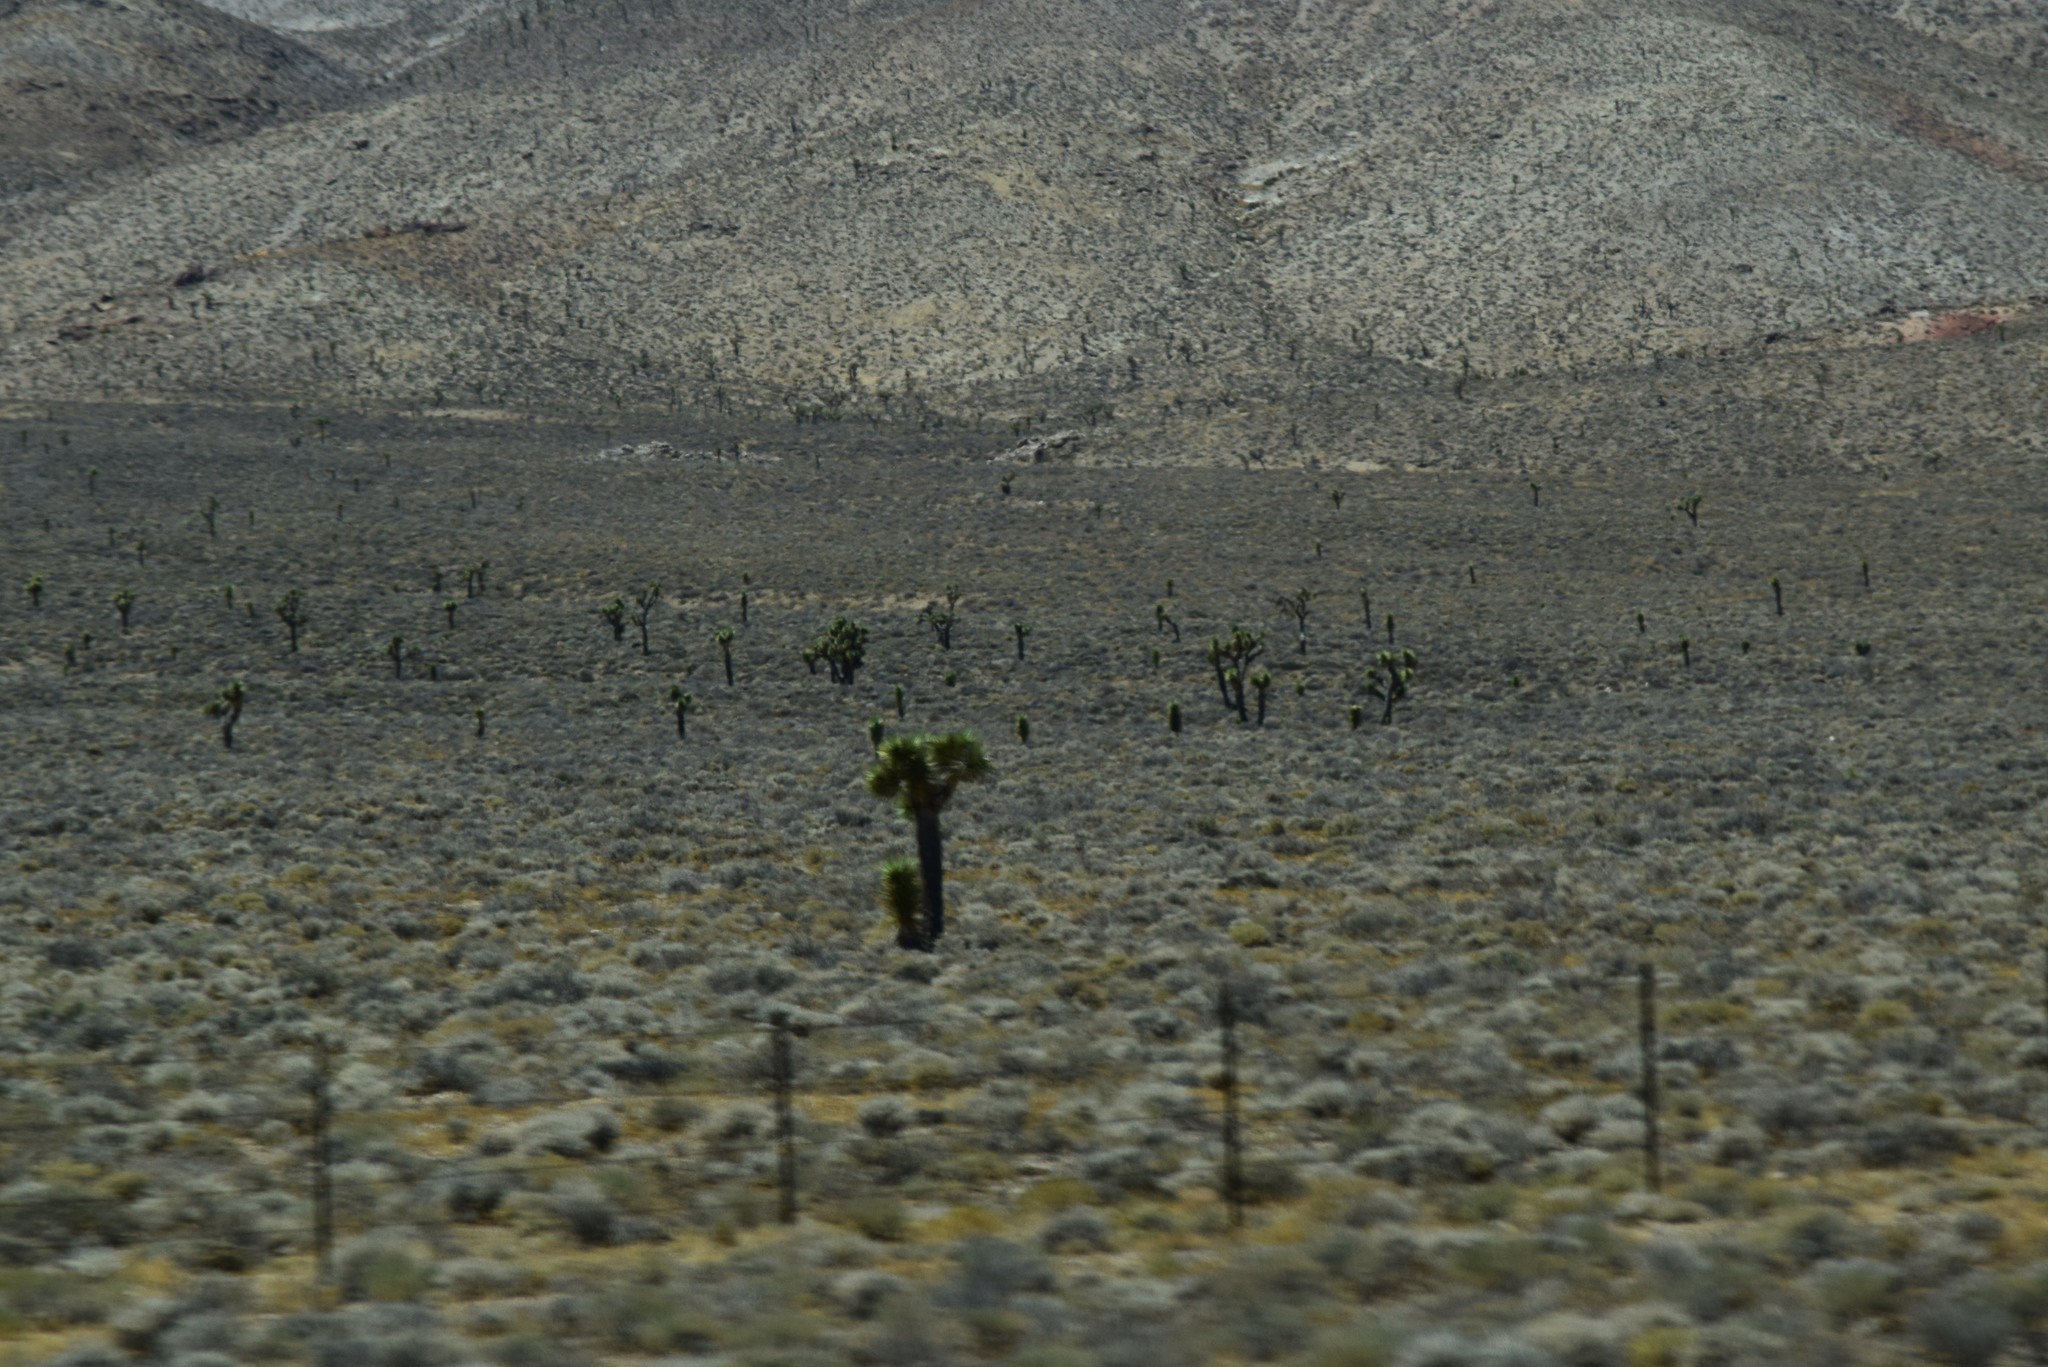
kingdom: Plantae
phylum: Tracheophyta
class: Liliopsida
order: Asparagales
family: Asparagaceae
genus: Yucca
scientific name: Yucca brevifolia
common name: Joshua tree
